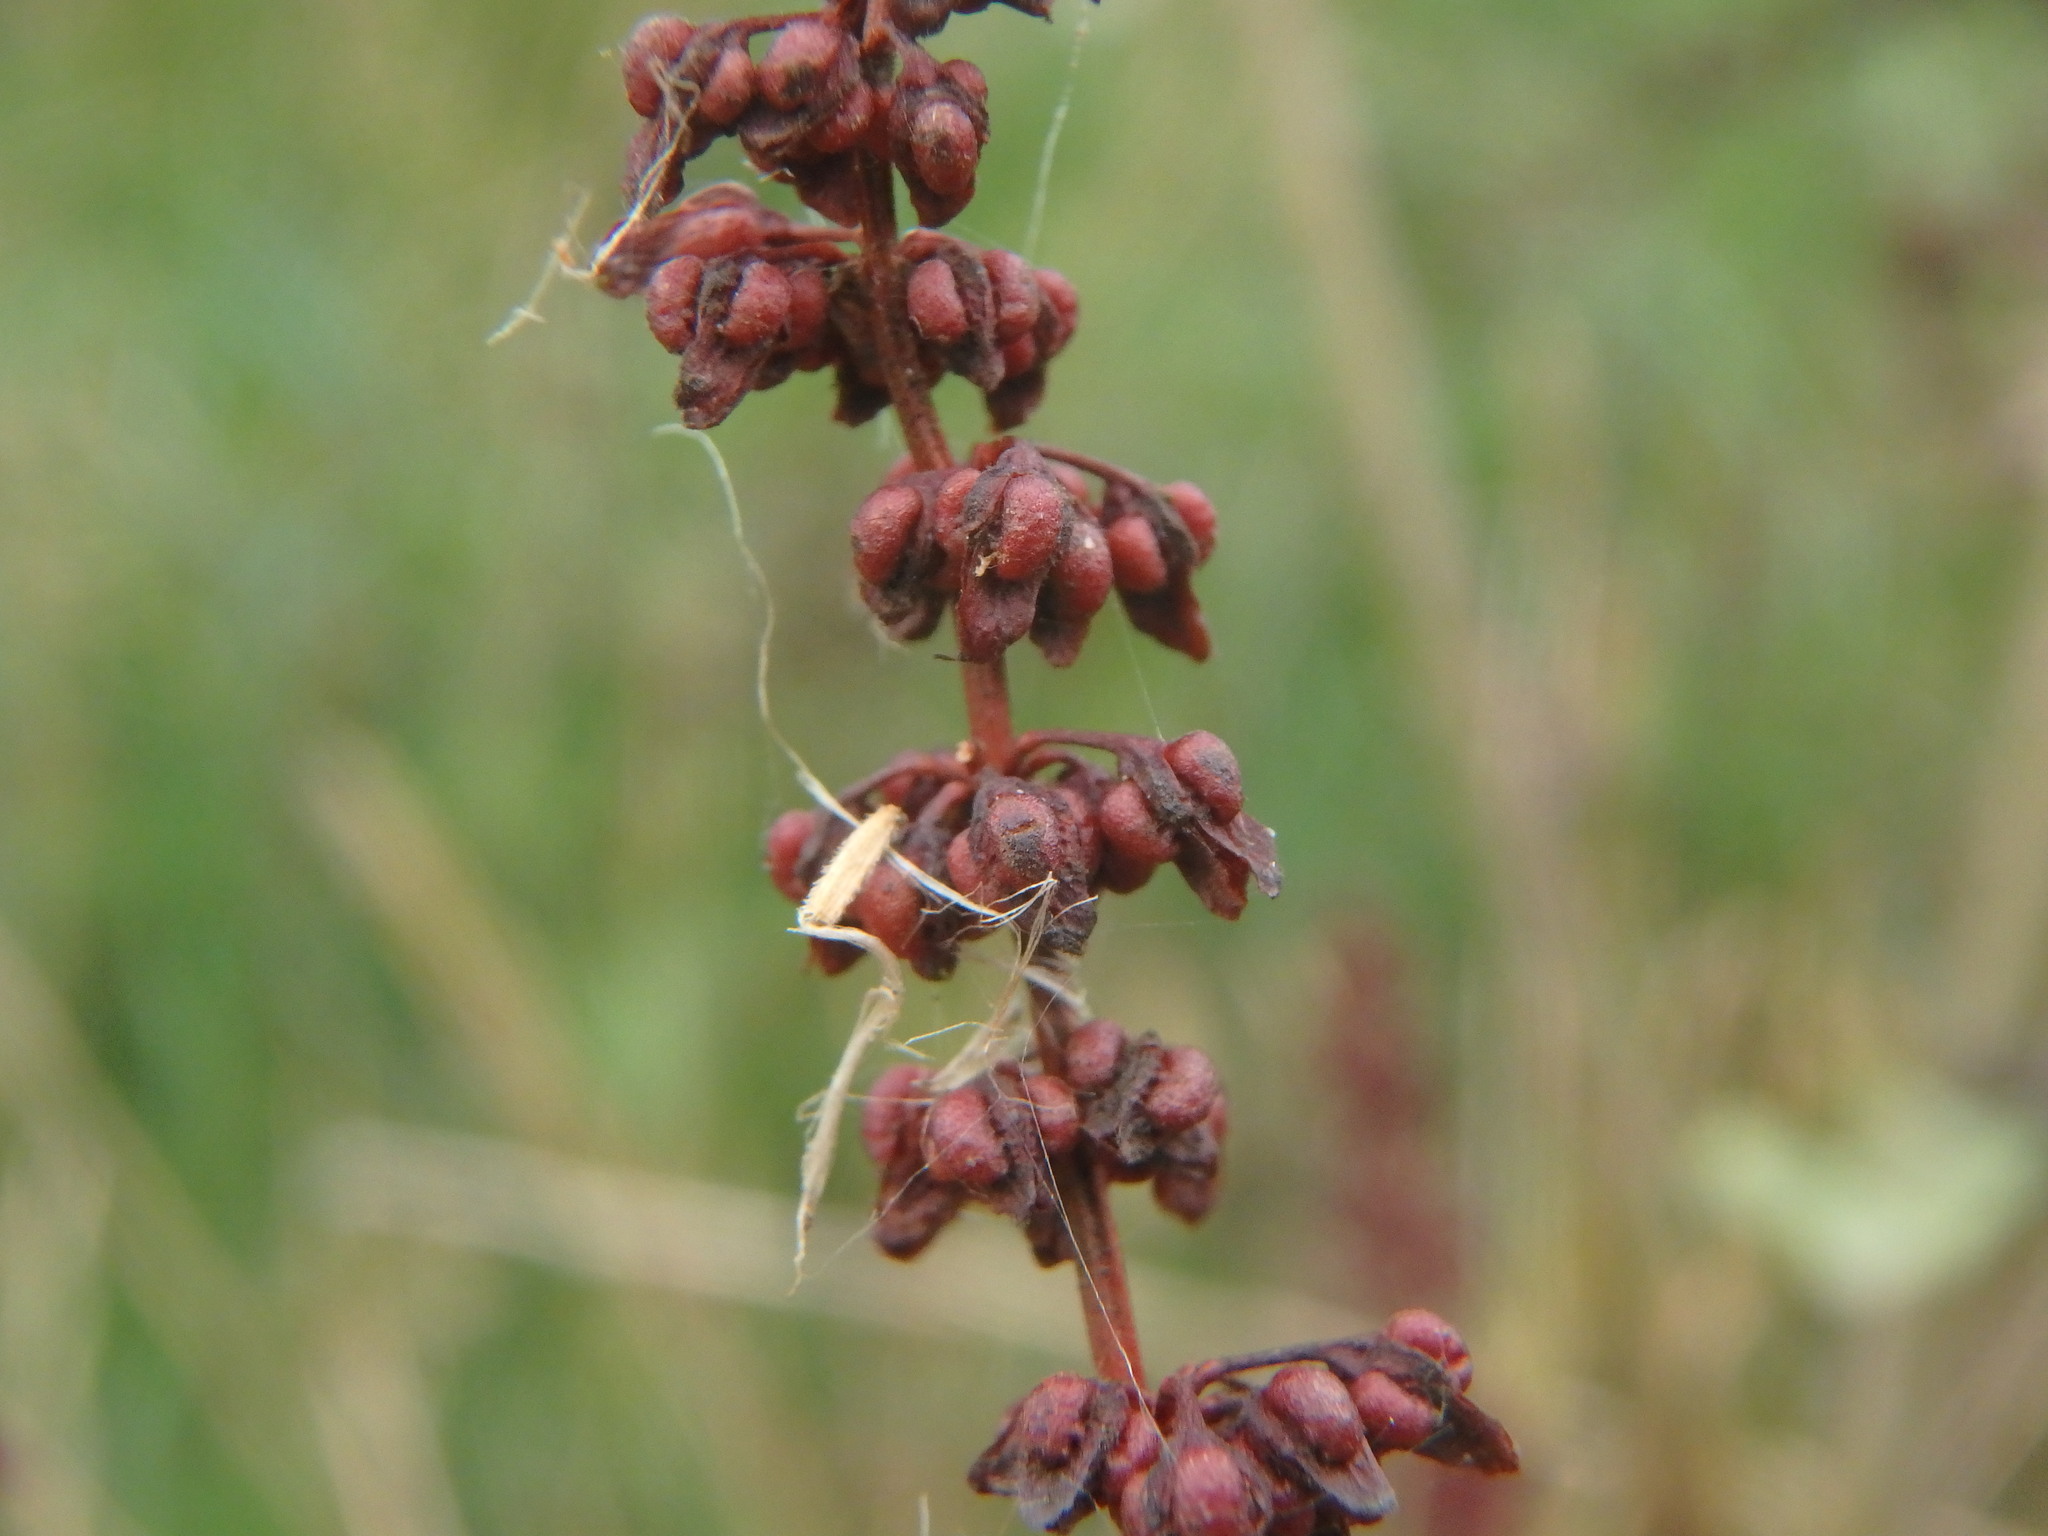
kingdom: Plantae
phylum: Tracheophyta
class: Magnoliopsida
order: Caryophyllales
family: Polygonaceae
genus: Rumex
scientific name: Rumex conglomeratus
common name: Clustered dock
